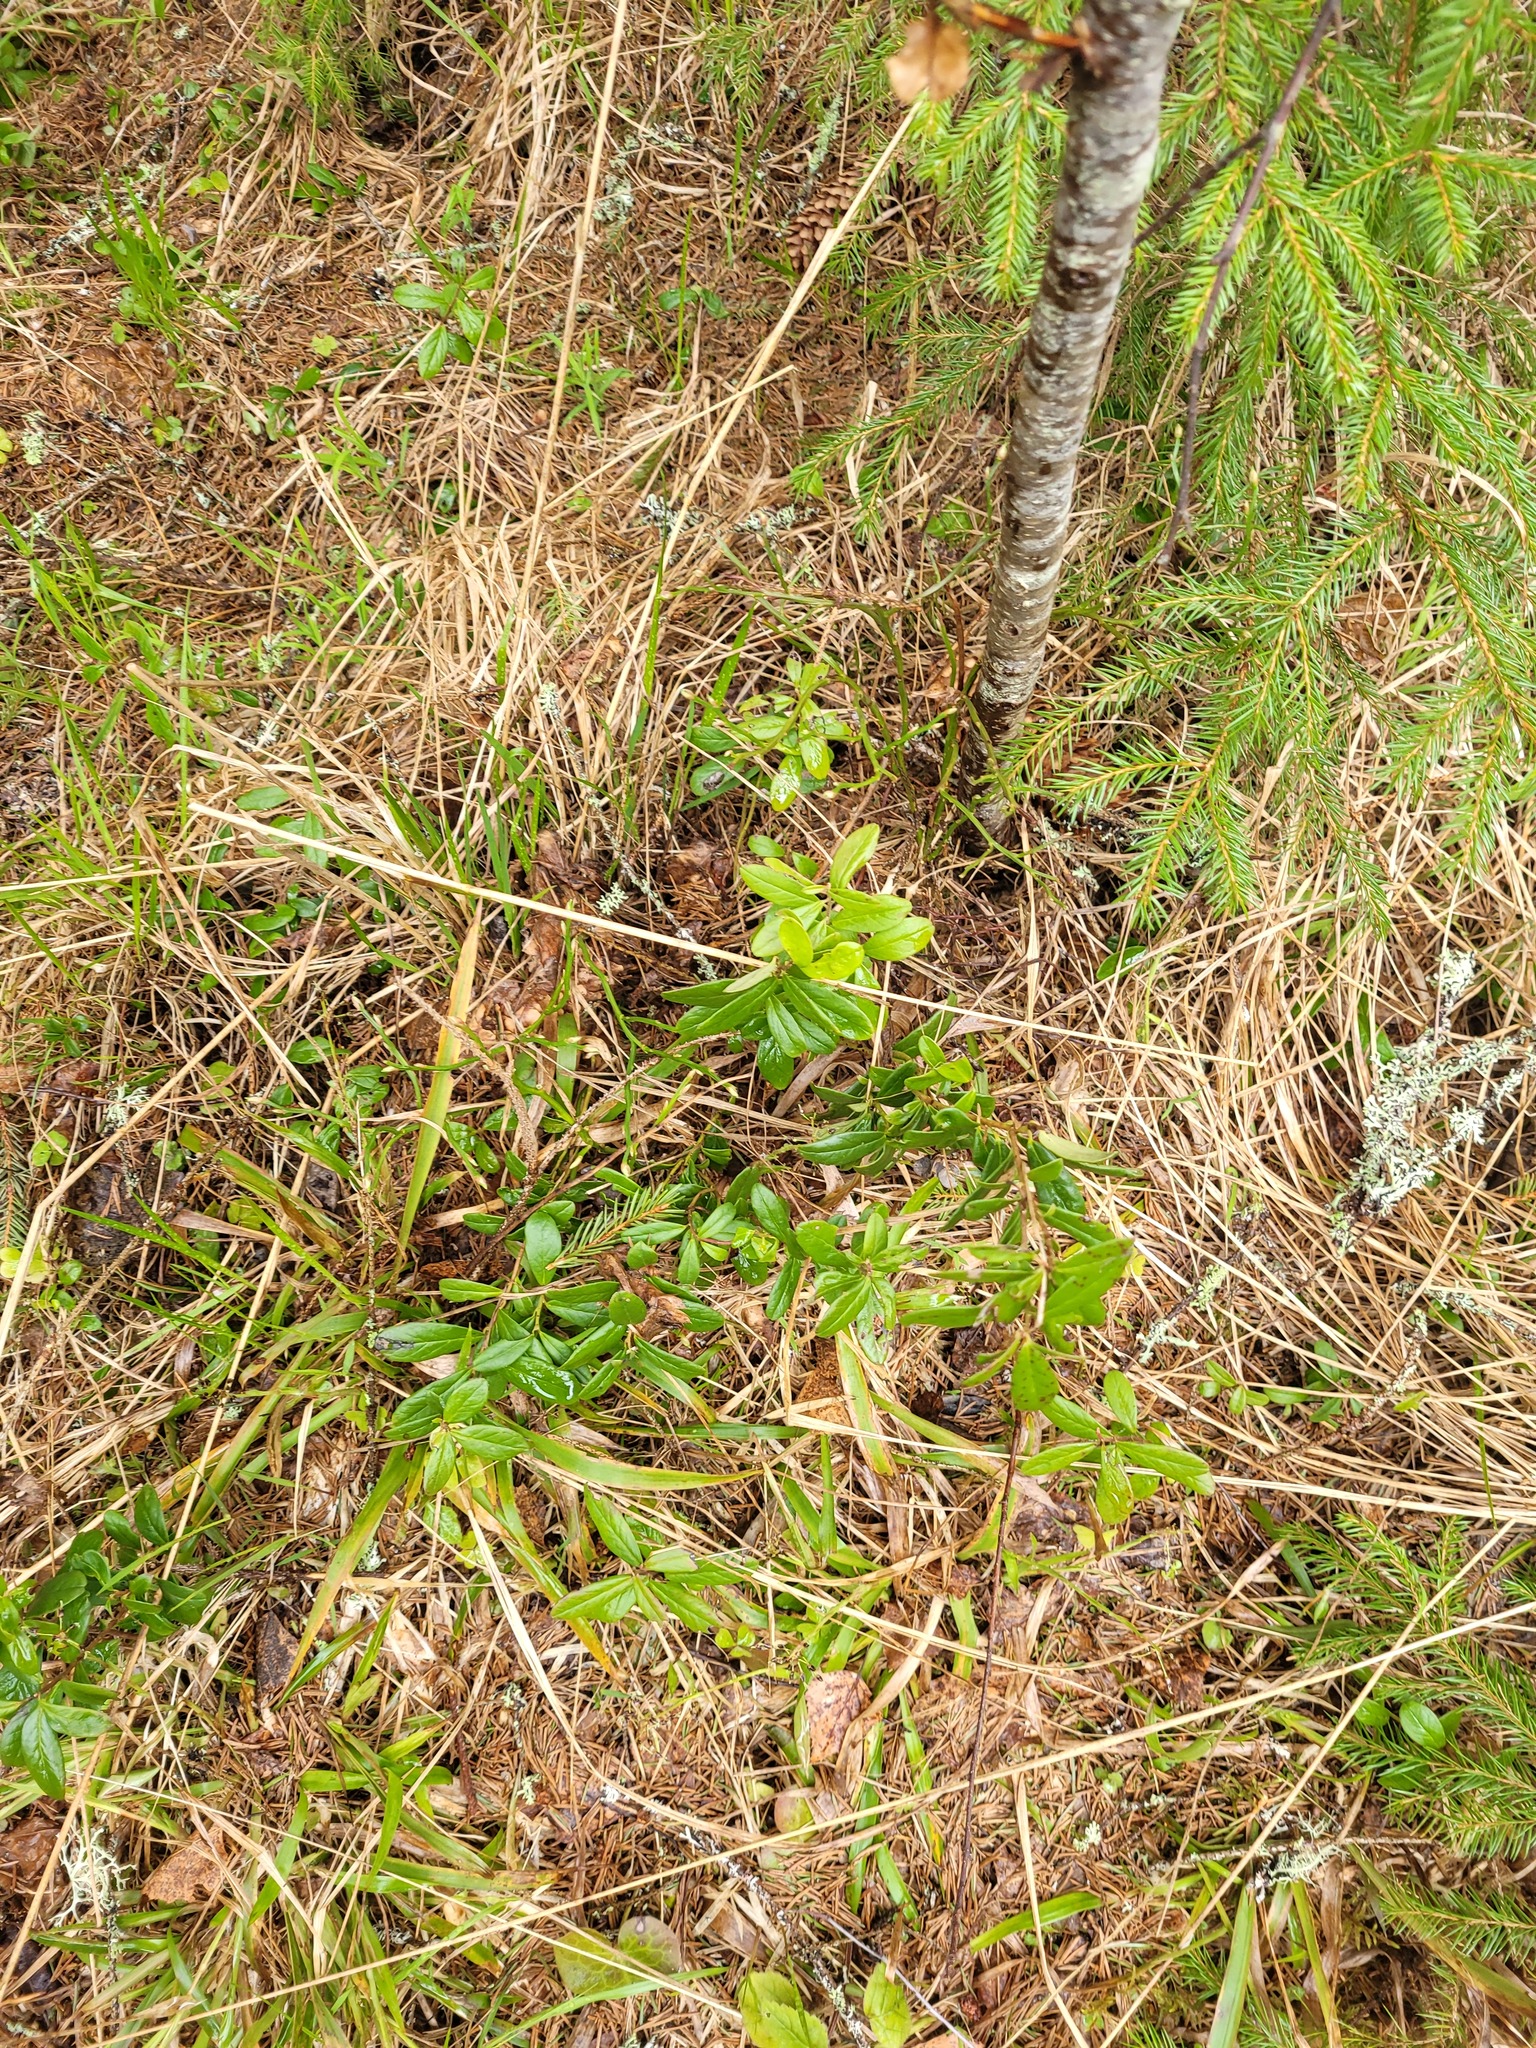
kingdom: Plantae
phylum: Tracheophyta
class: Magnoliopsida
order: Ericales
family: Ericaceae
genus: Vaccinium
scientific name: Vaccinium vitis-idaea
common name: Cowberry
